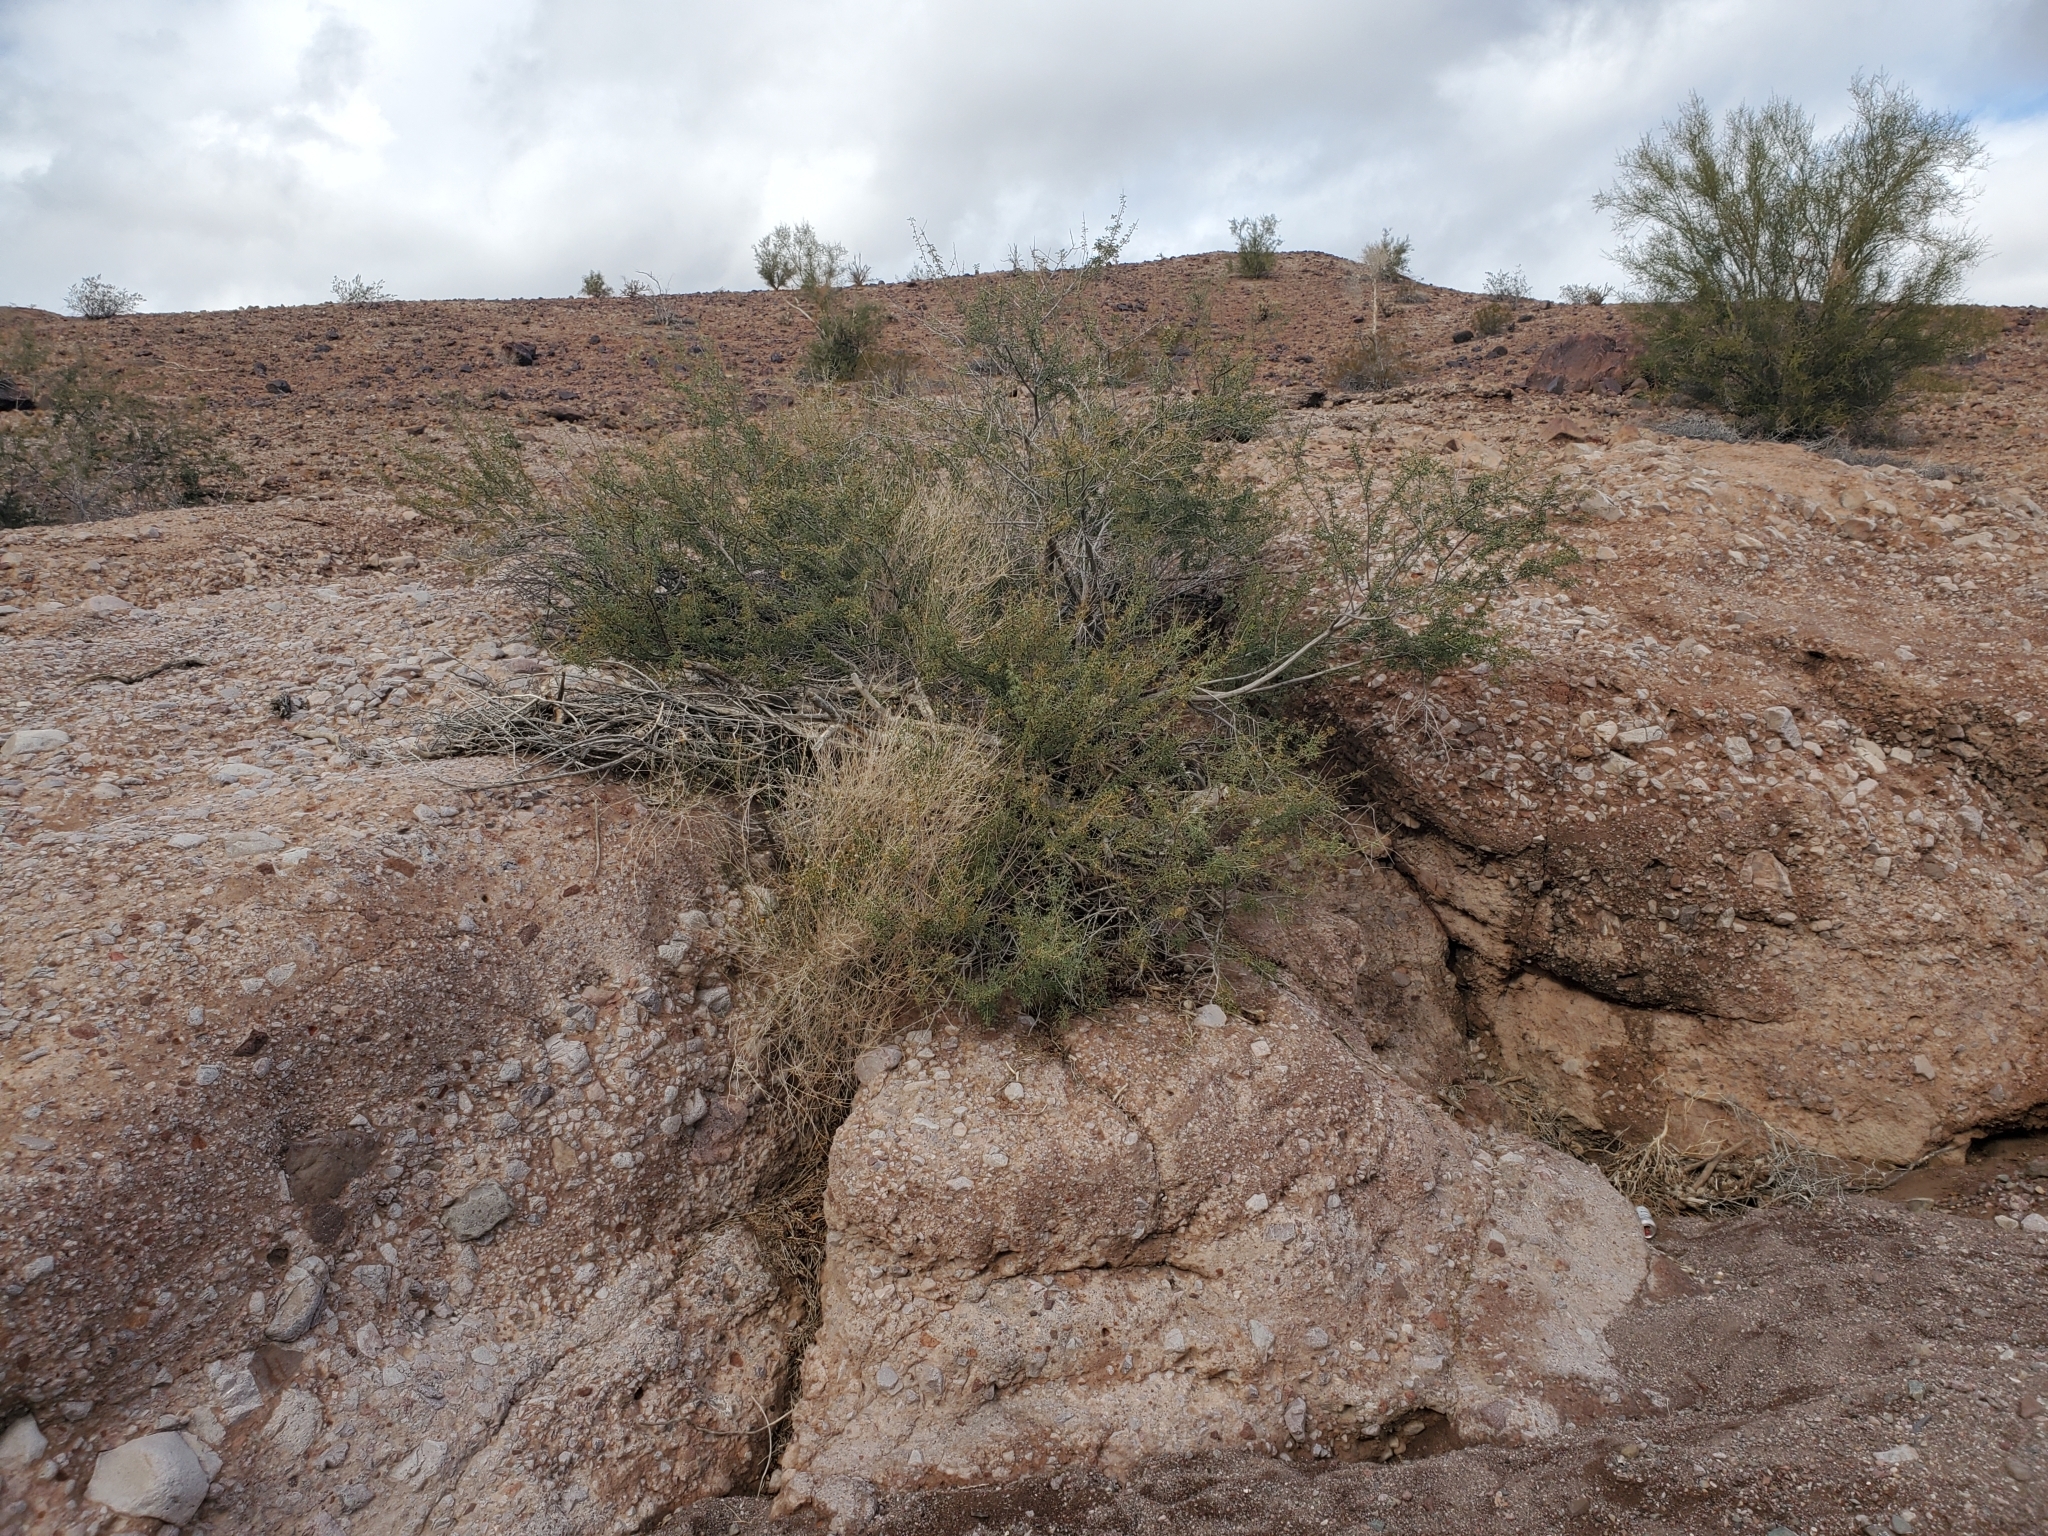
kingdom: Plantae
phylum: Tracheophyta
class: Magnoliopsida
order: Asterales
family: Asteraceae
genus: Bebbia
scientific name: Bebbia juncea
